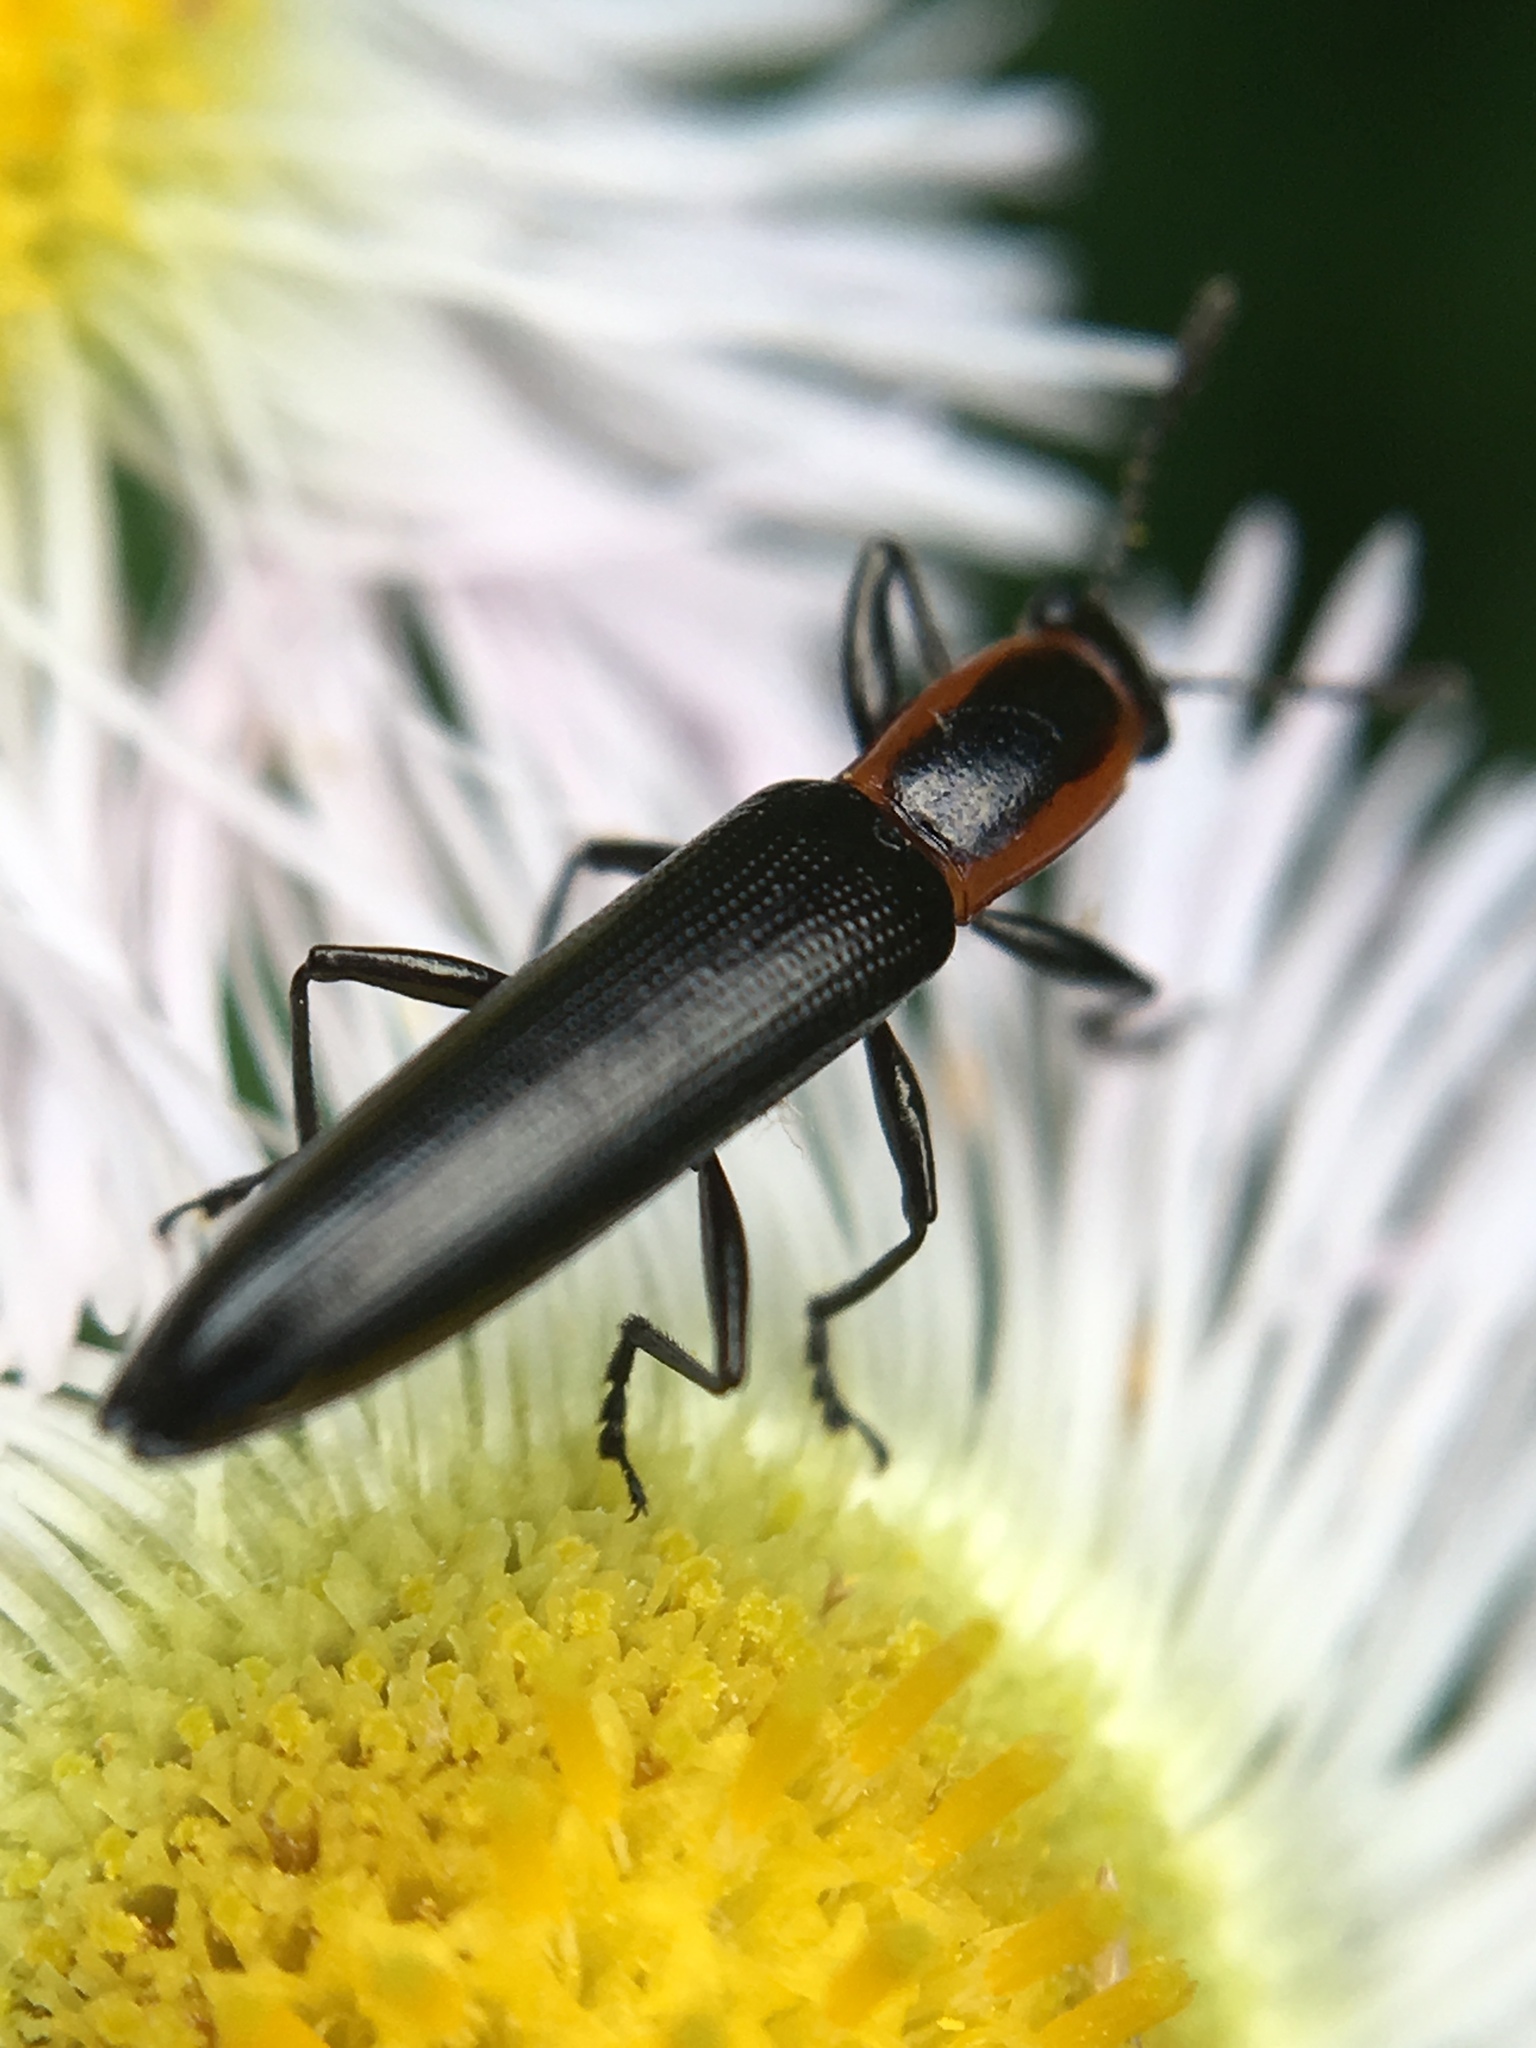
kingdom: Animalia
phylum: Arthropoda
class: Insecta
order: Coleoptera
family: Erotylidae
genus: Acropteroxys
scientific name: Acropteroxys gracilis
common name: Slender lizard beetle
